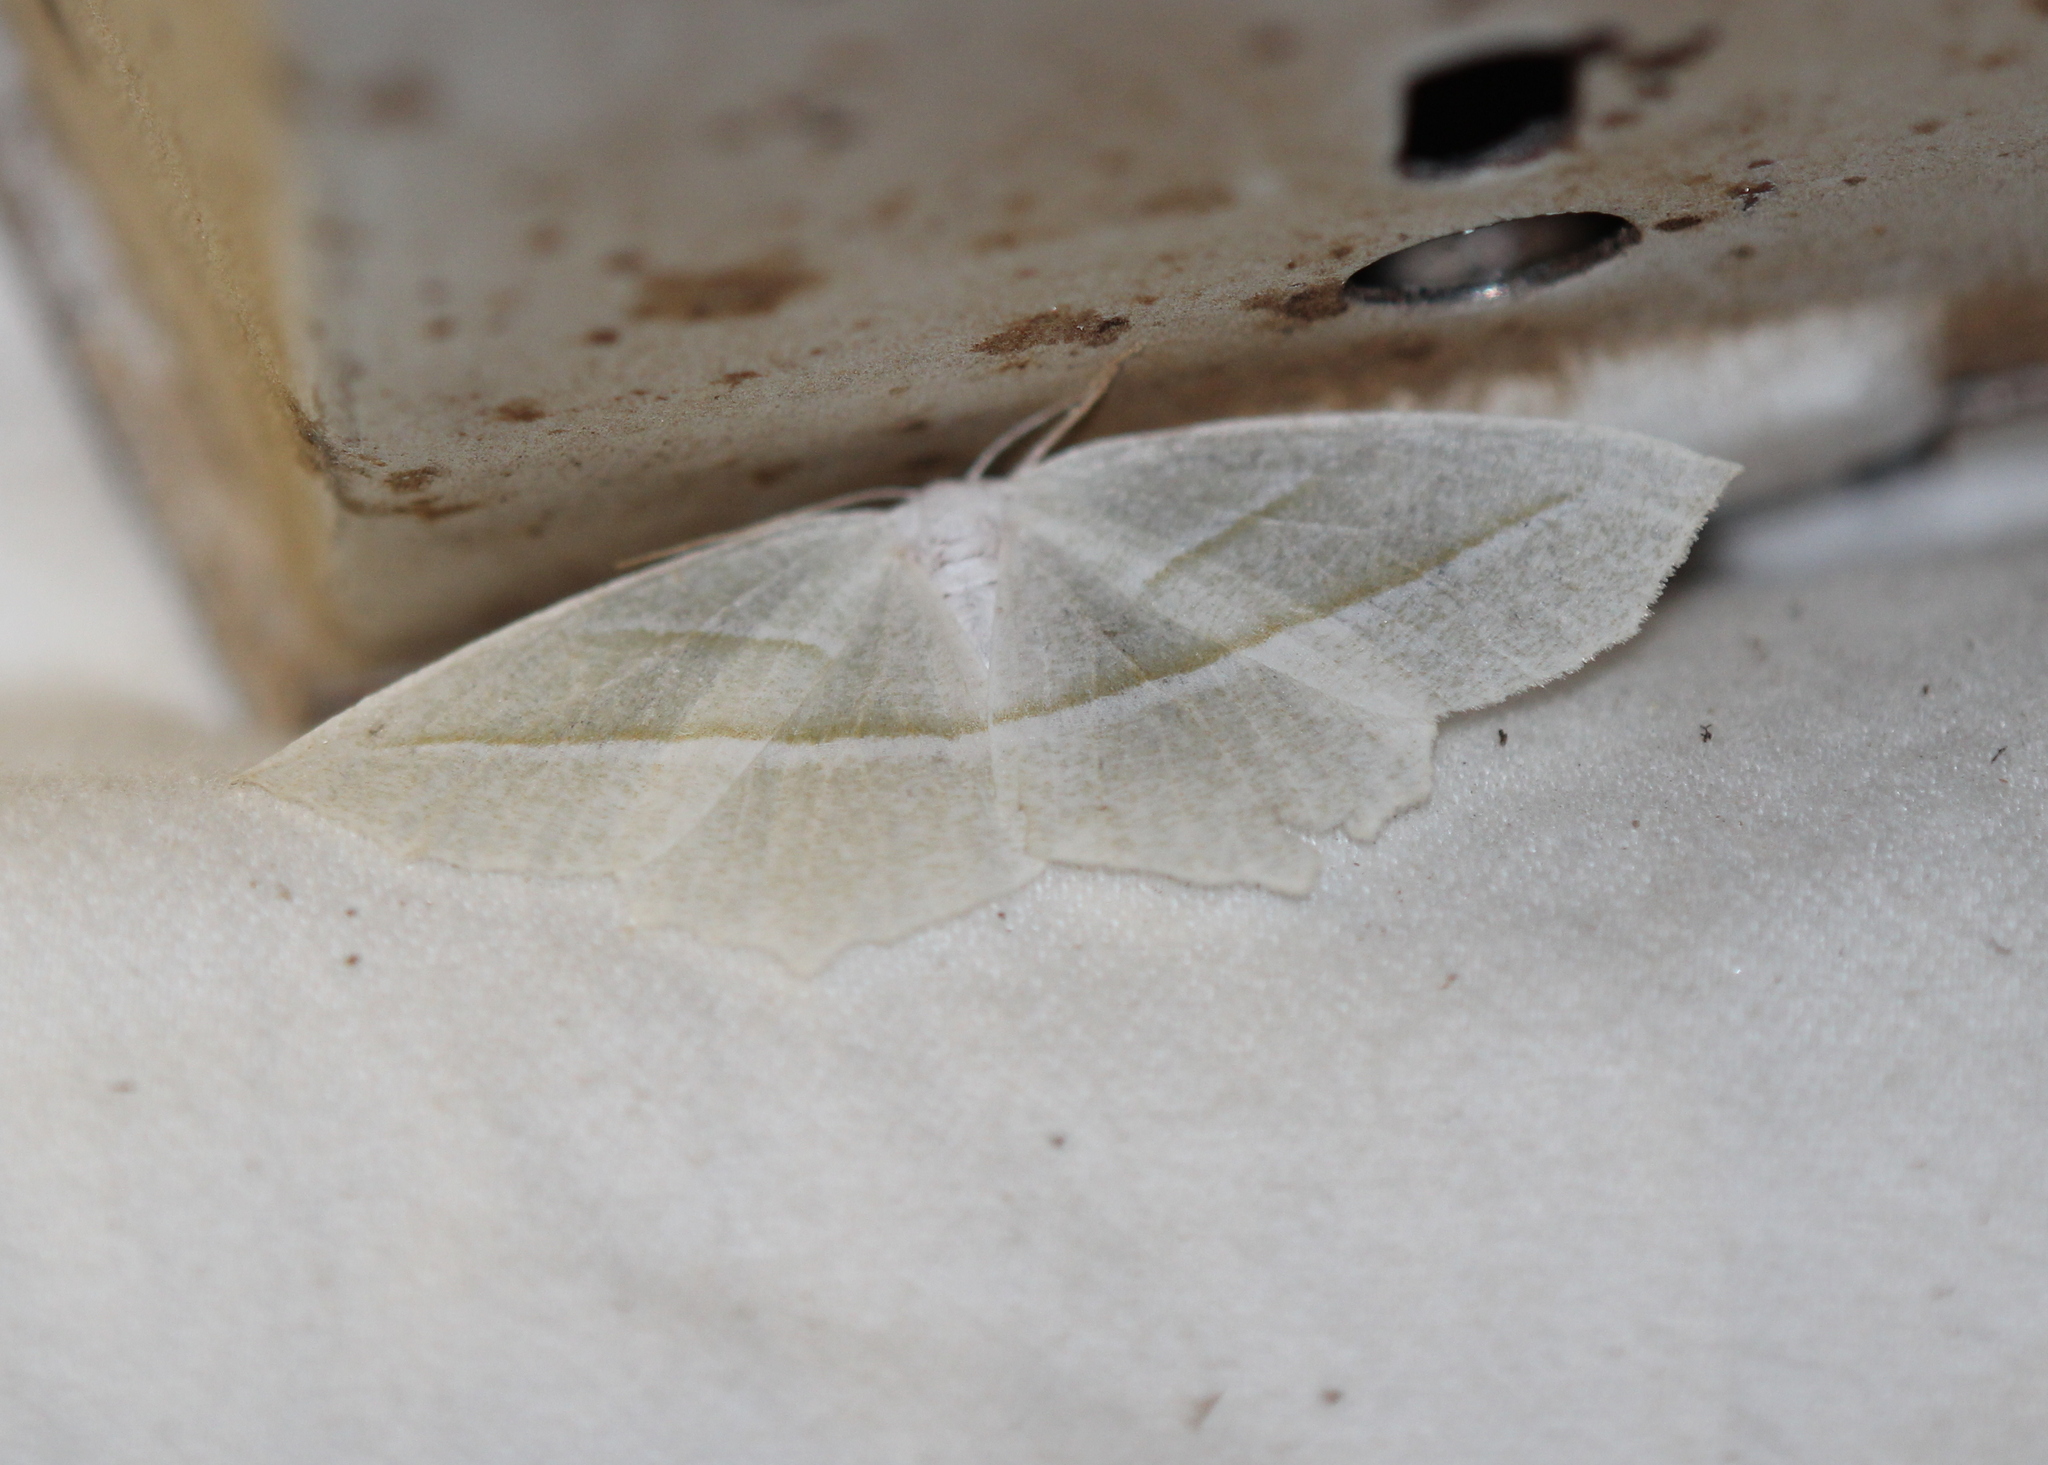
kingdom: Animalia
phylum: Arthropoda
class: Insecta
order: Lepidoptera
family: Geometridae
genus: Campaea
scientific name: Campaea perlata
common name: Fringed looper
